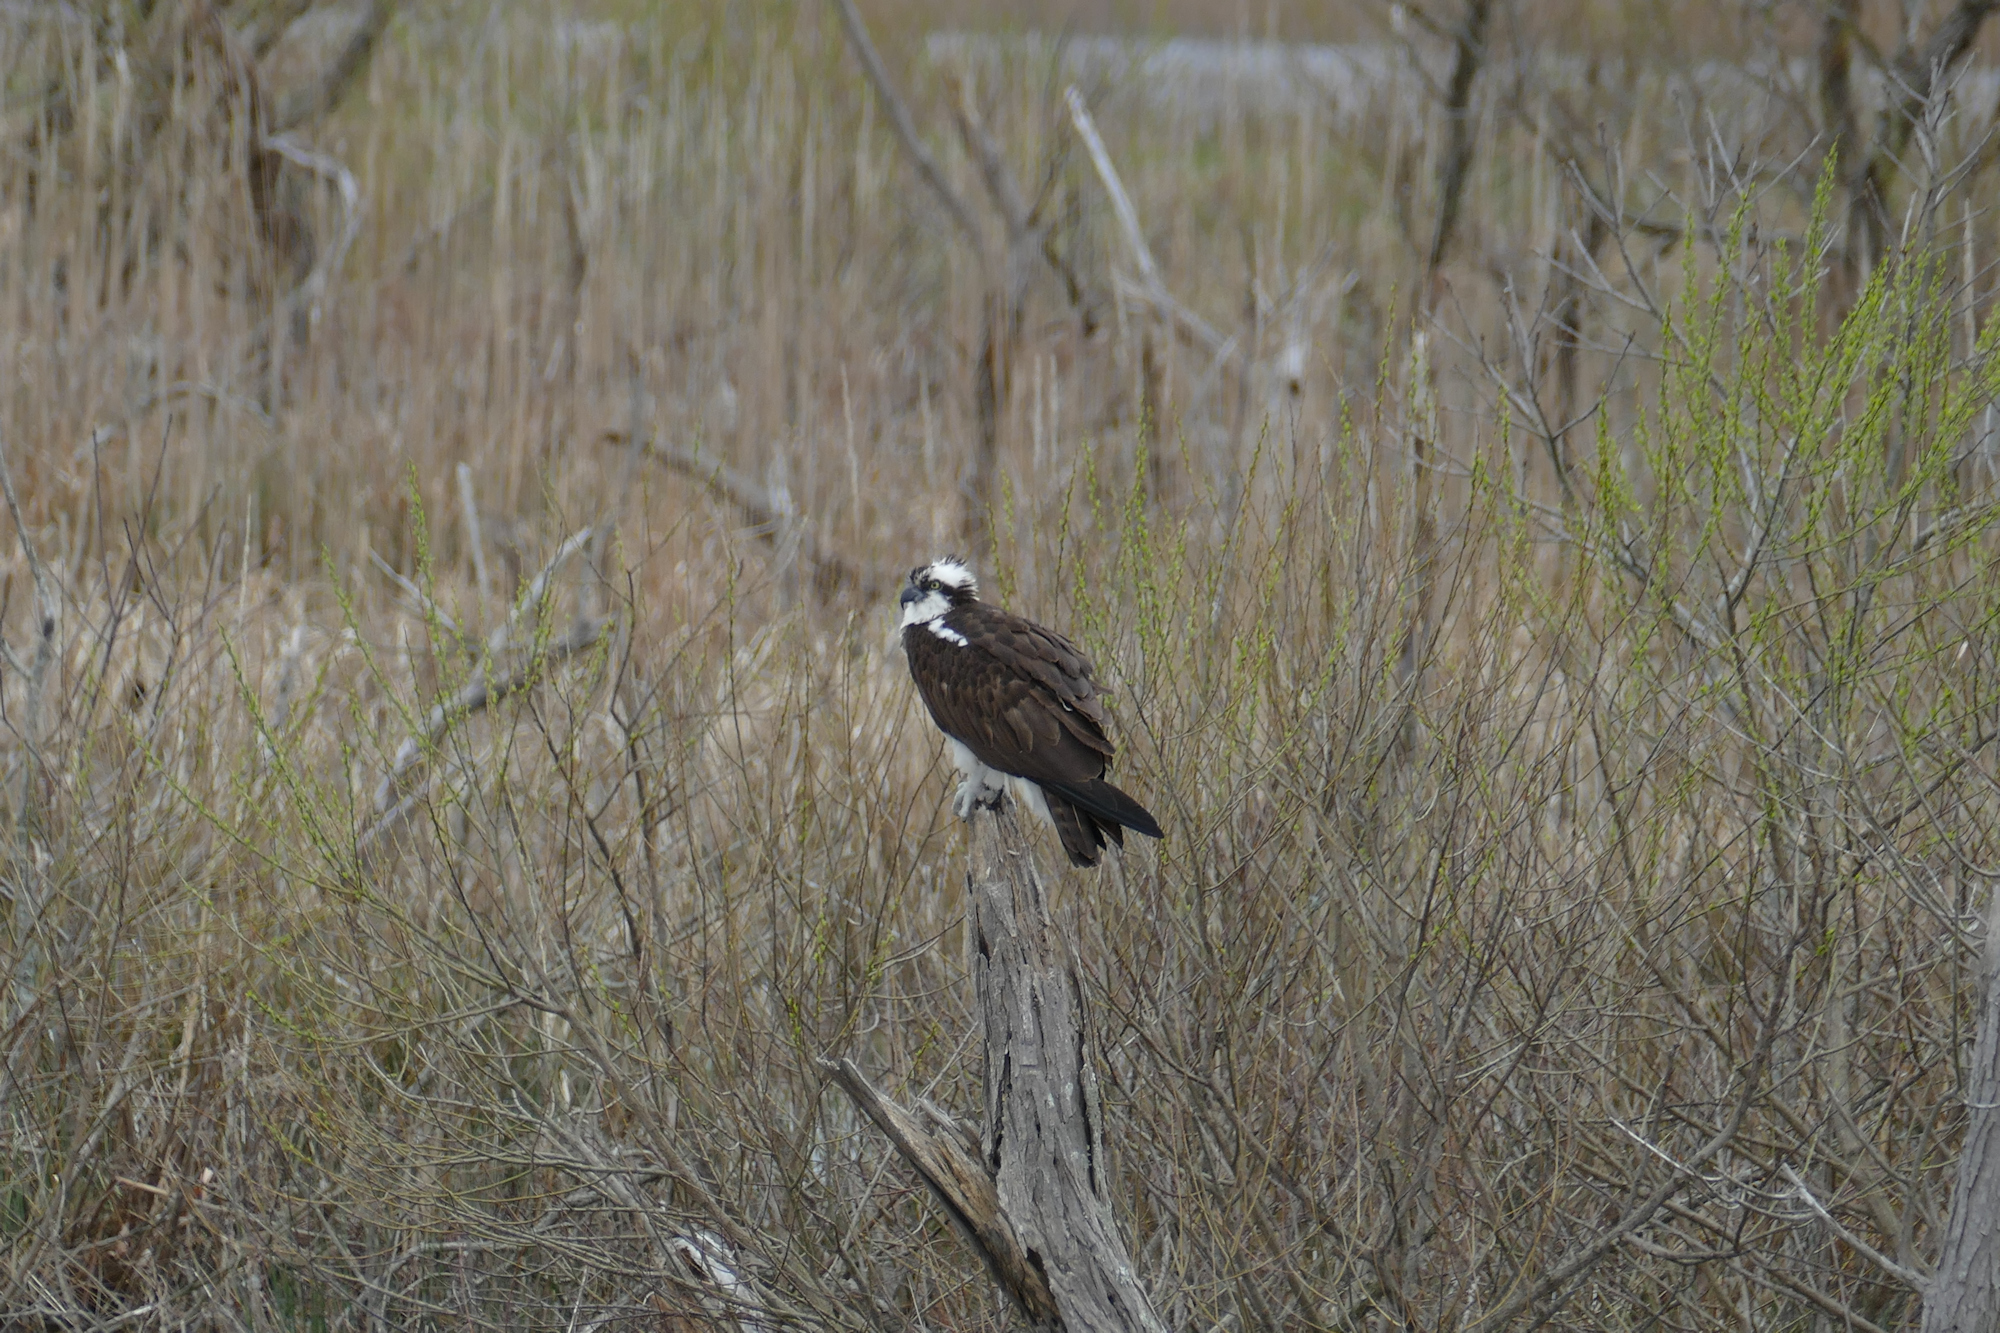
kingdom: Animalia
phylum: Chordata
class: Aves
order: Accipitriformes
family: Pandionidae
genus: Pandion
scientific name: Pandion haliaetus
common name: Osprey
